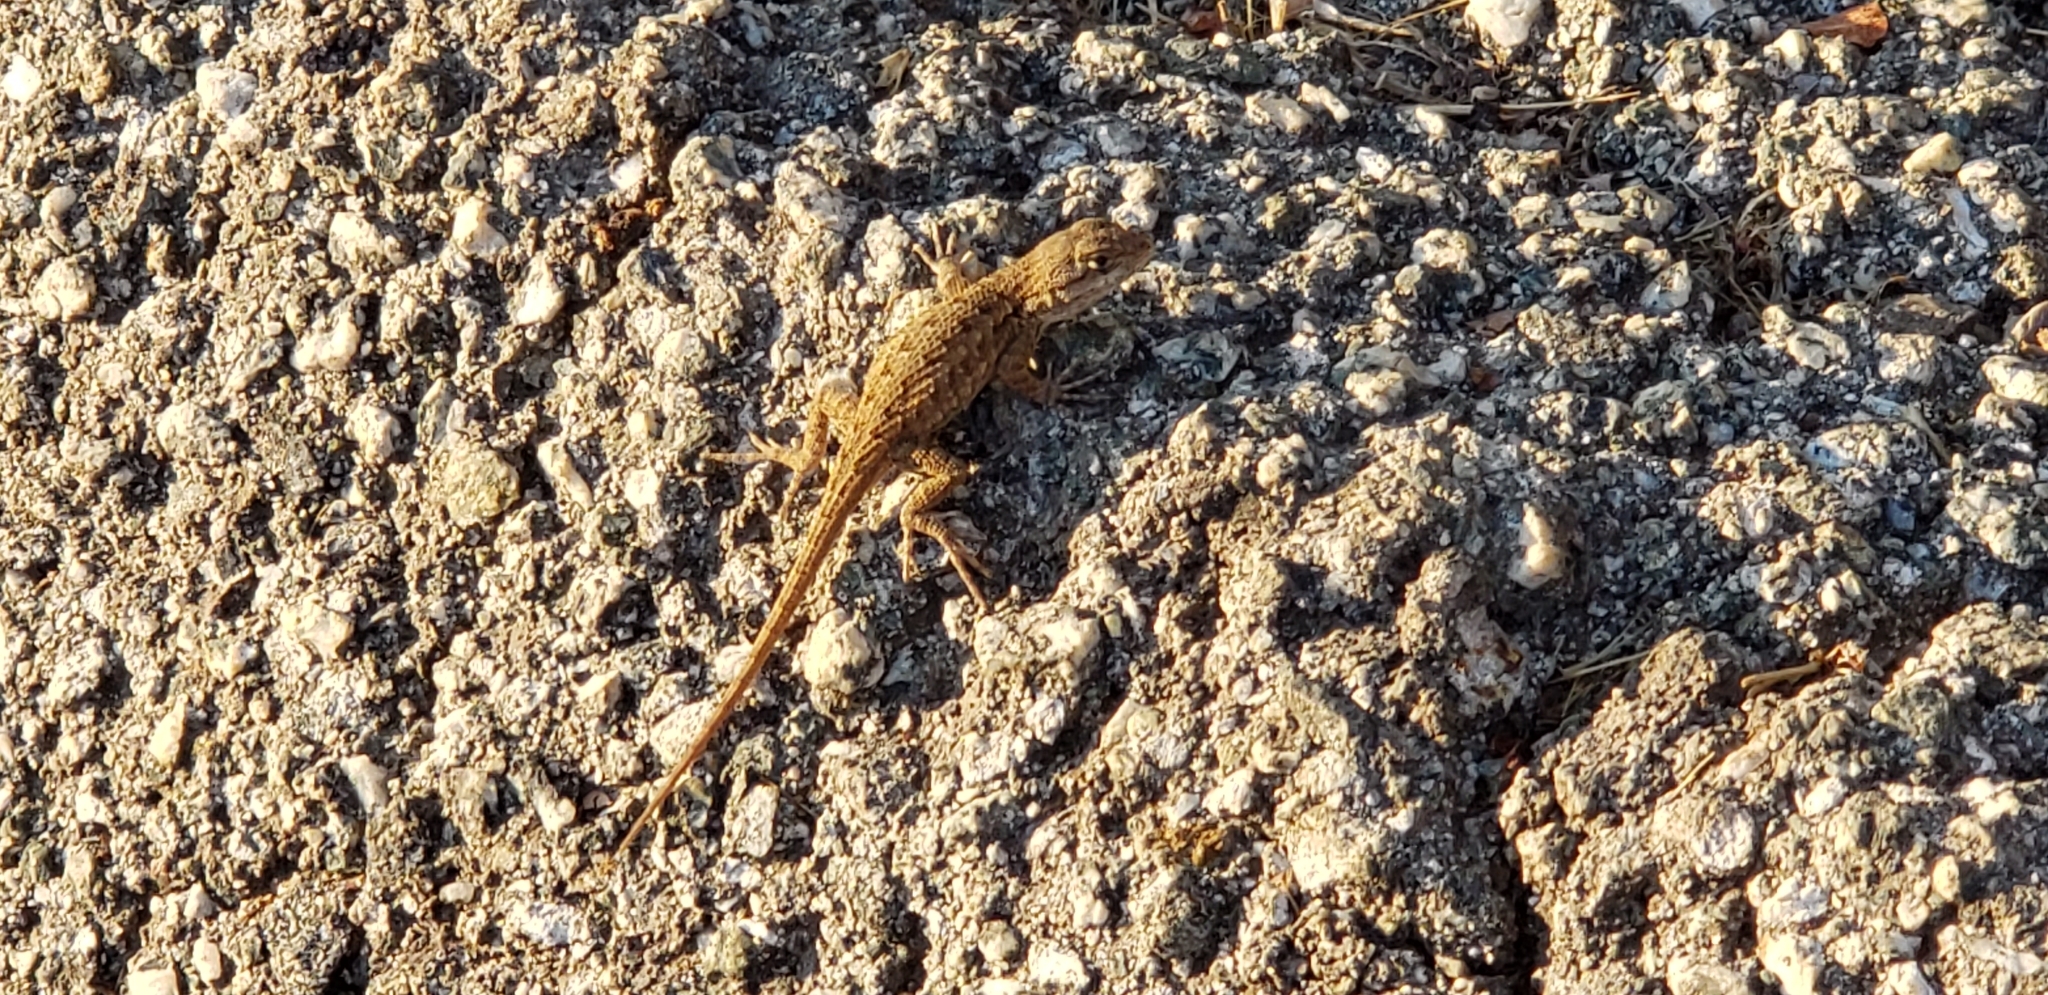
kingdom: Animalia
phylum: Chordata
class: Squamata
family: Phrynosomatidae
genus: Sceloporus
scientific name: Sceloporus occidentalis
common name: Western fence lizard
